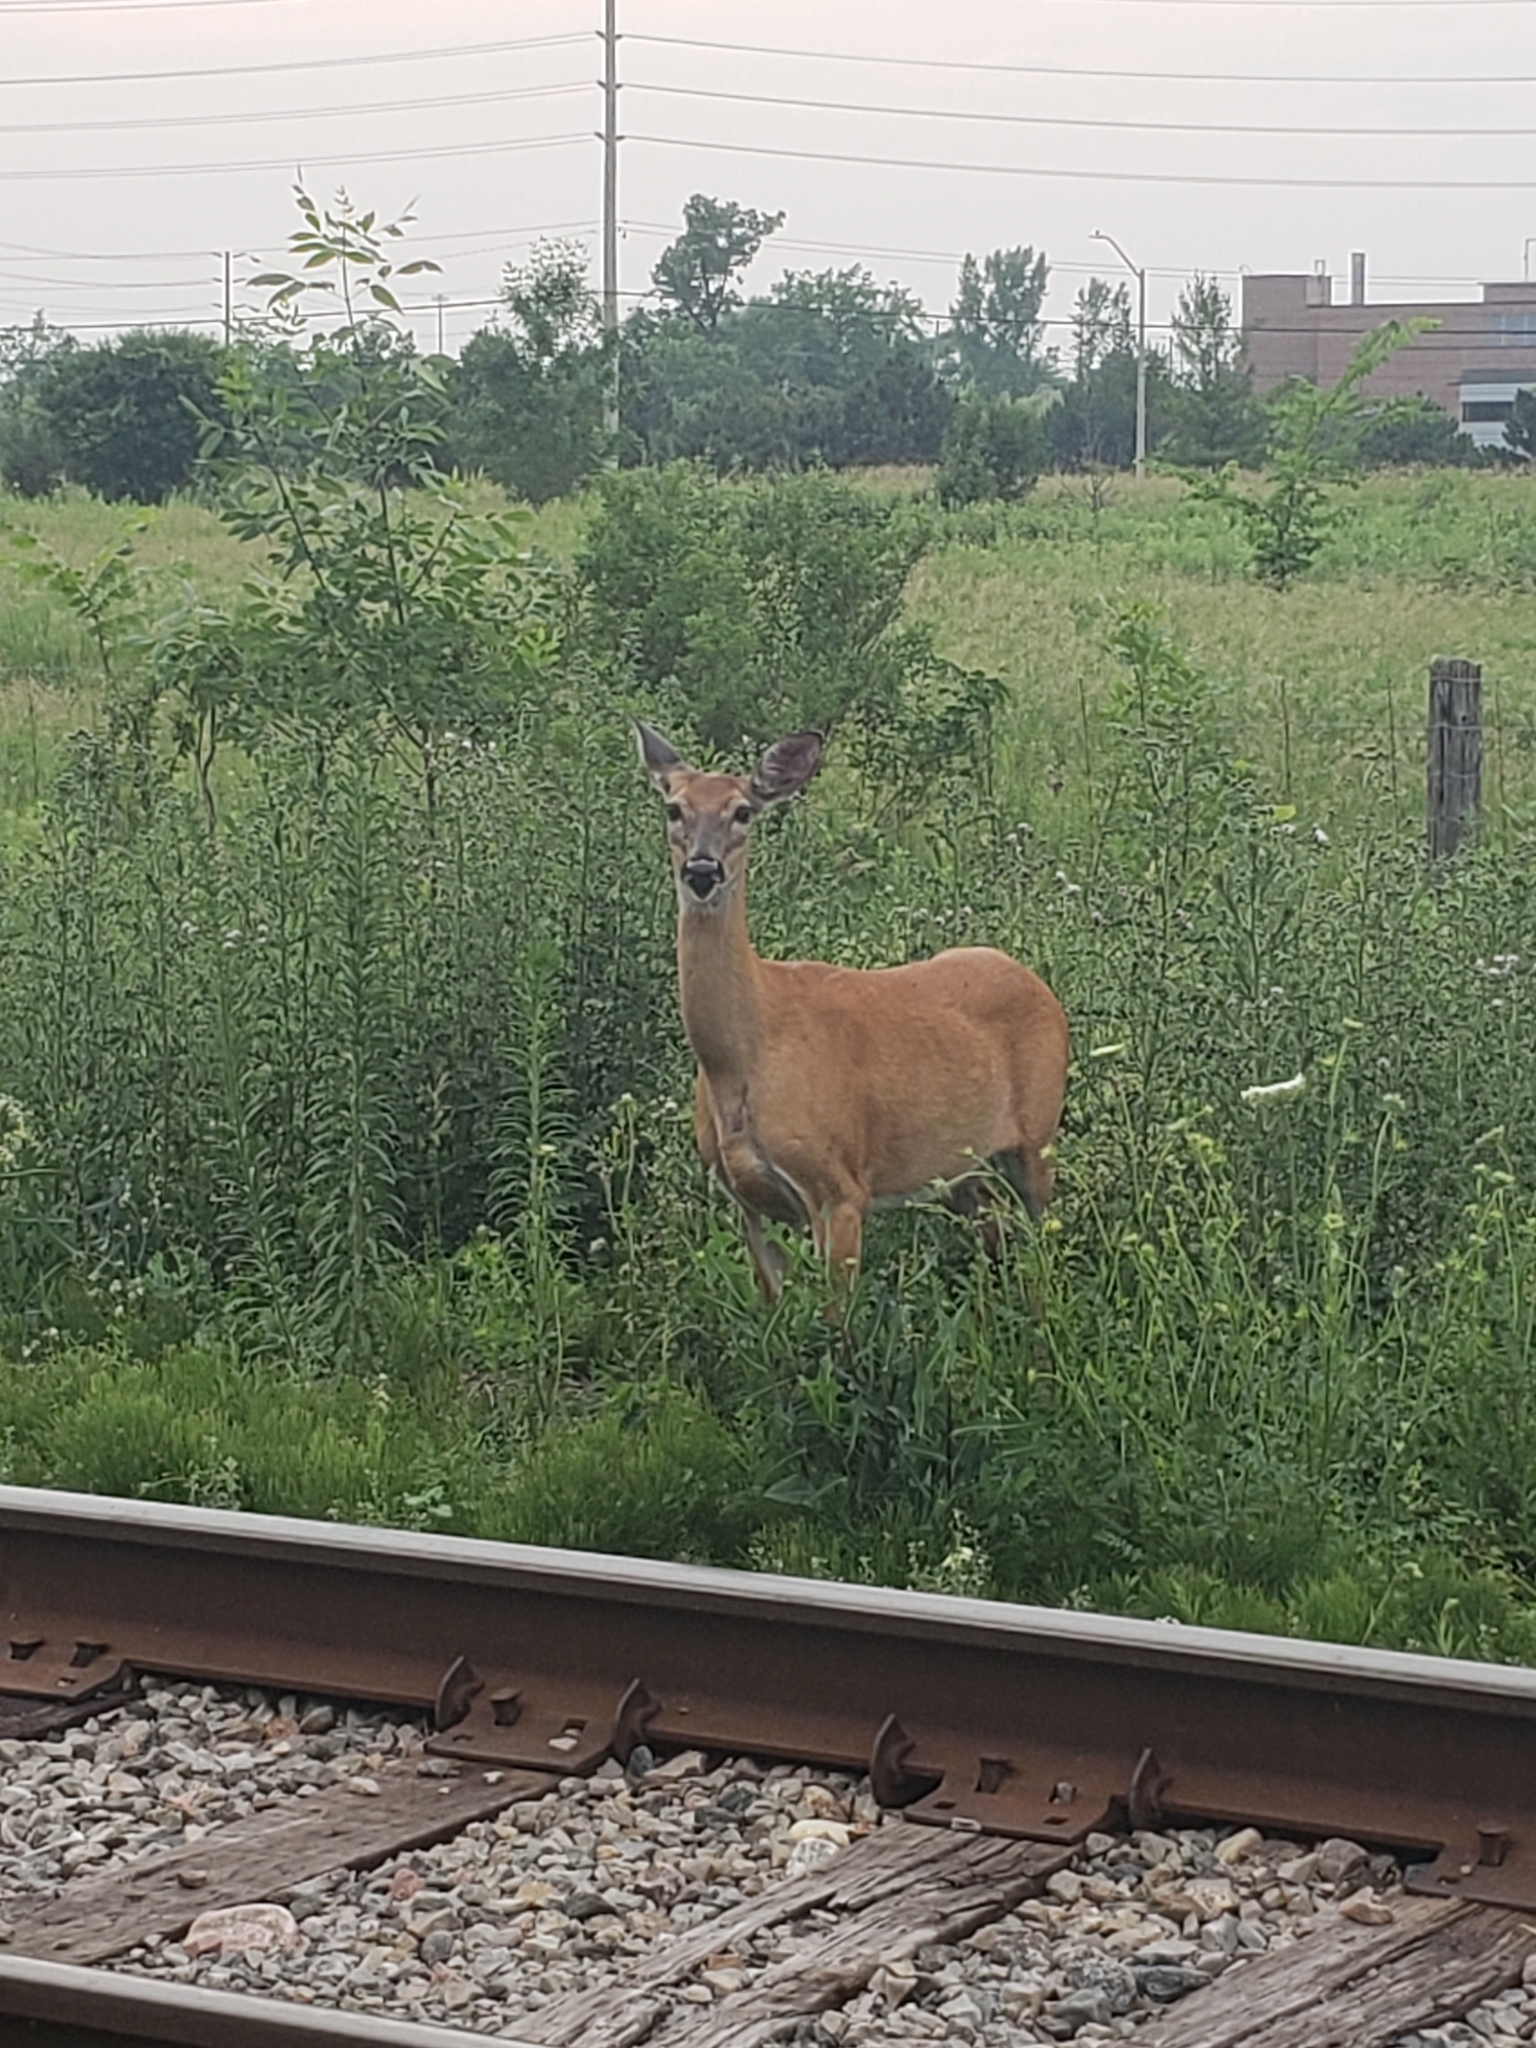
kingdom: Animalia
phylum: Chordata
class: Mammalia
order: Artiodactyla
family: Cervidae
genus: Odocoileus
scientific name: Odocoileus virginianus
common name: White-tailed deer
